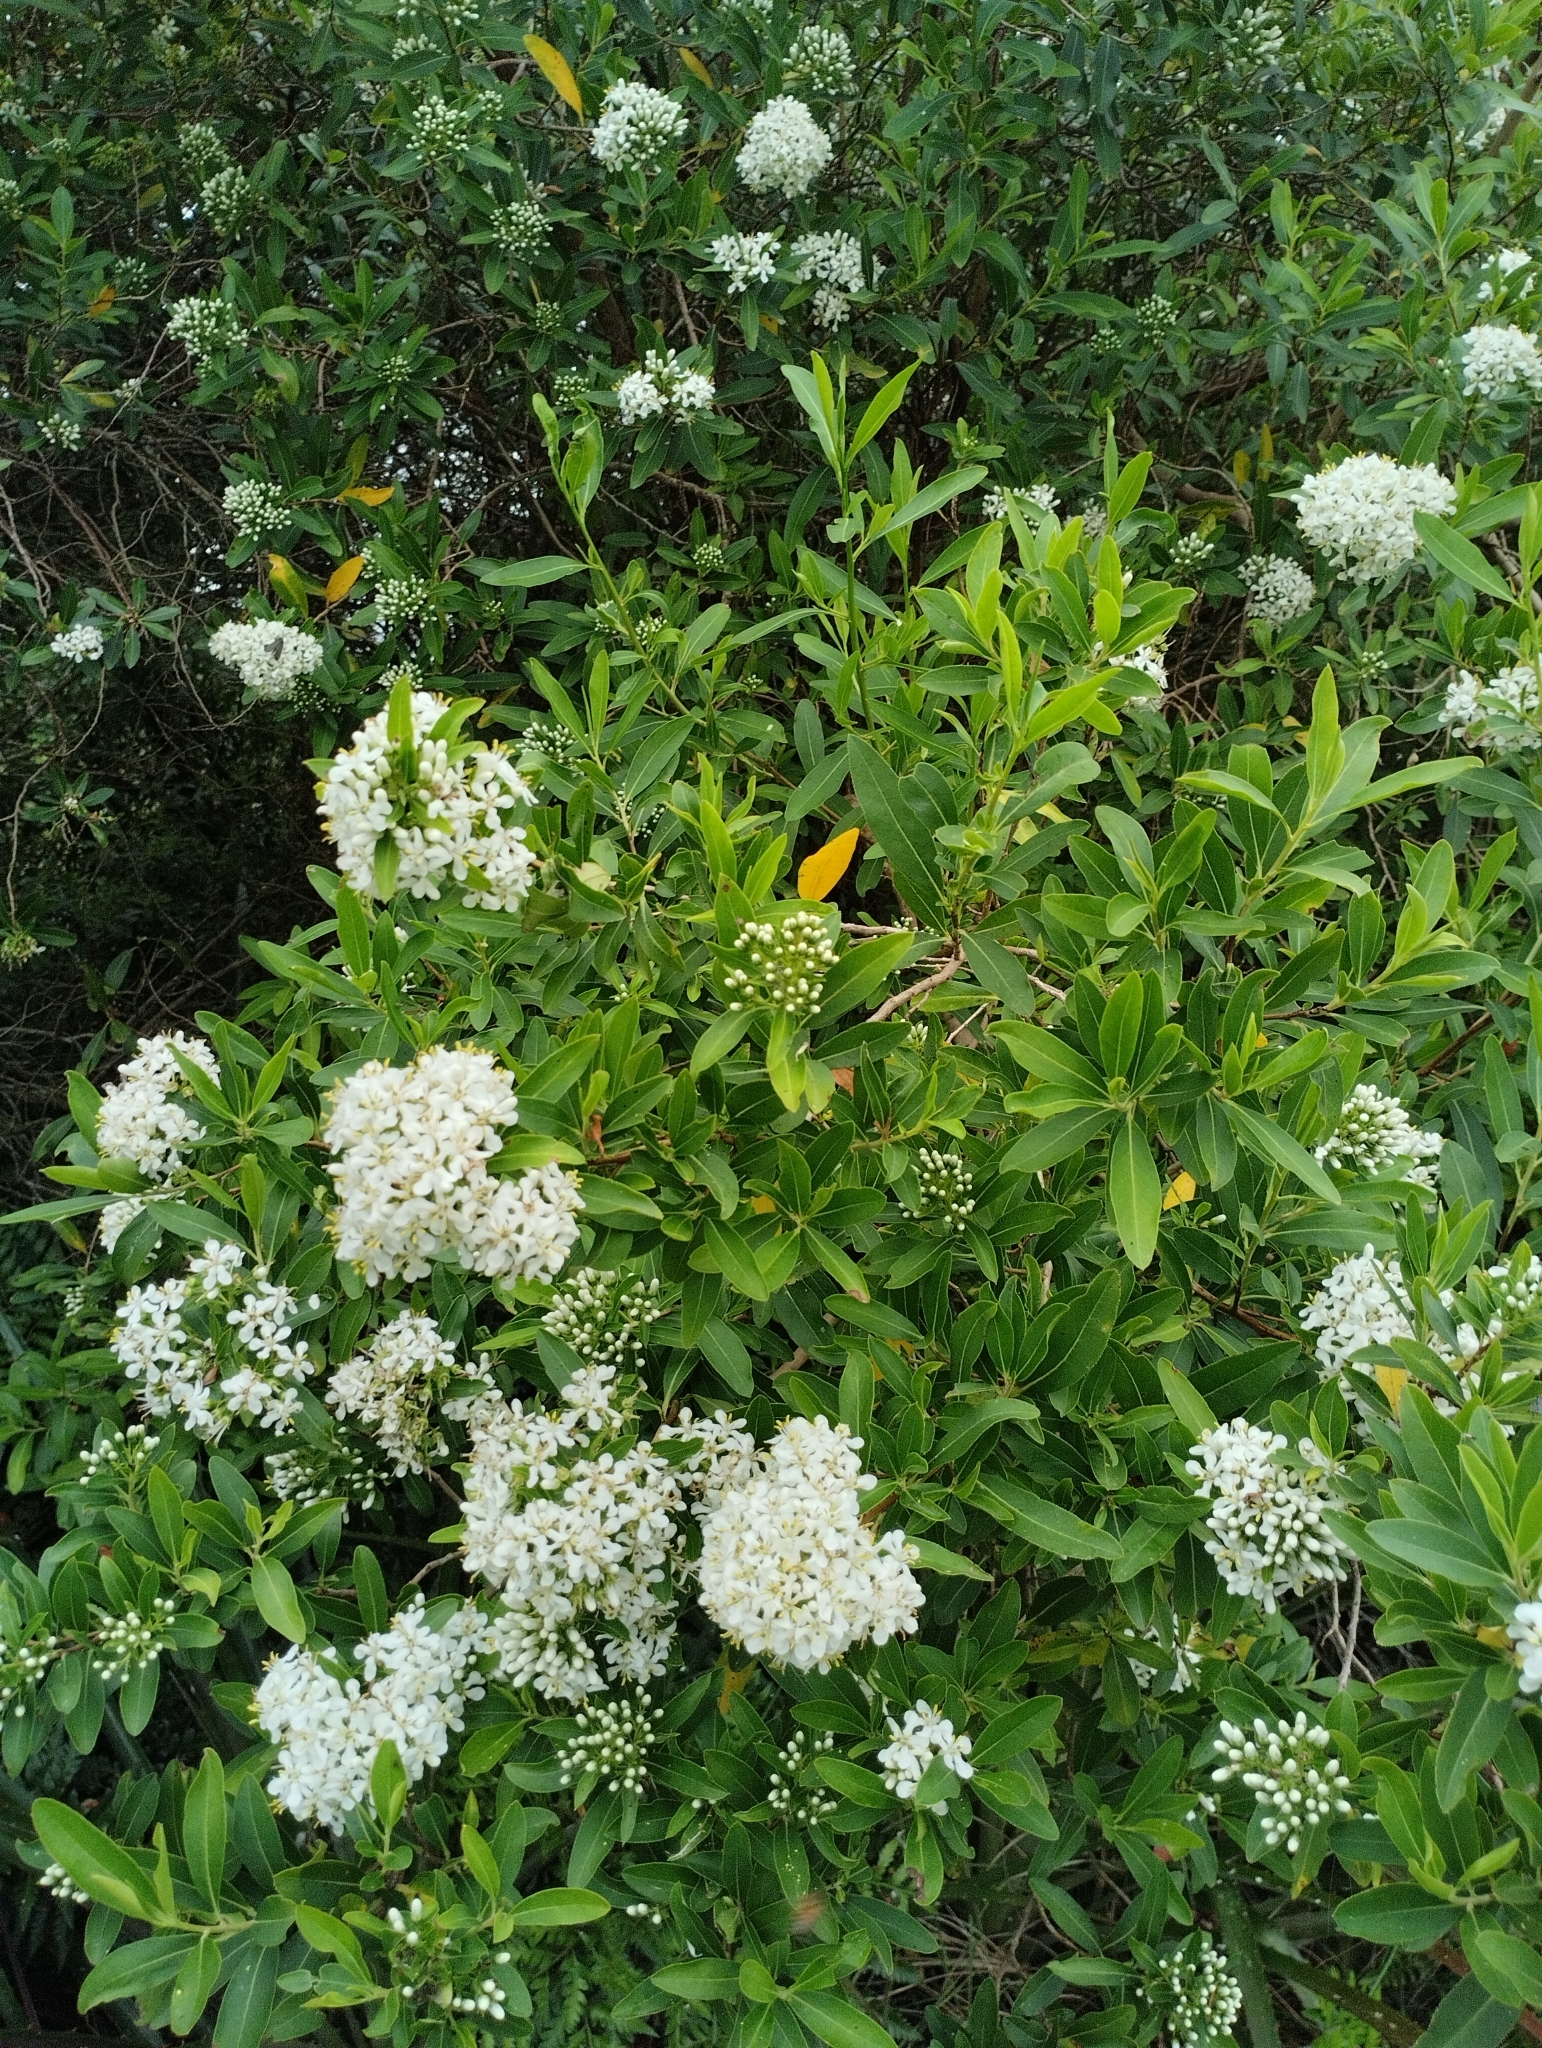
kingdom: Plantae
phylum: Tracheophyta
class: Magnoliopsida
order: Escalloniales
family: Escalloniaceae
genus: Escallonia
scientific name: Escallonia bifida
